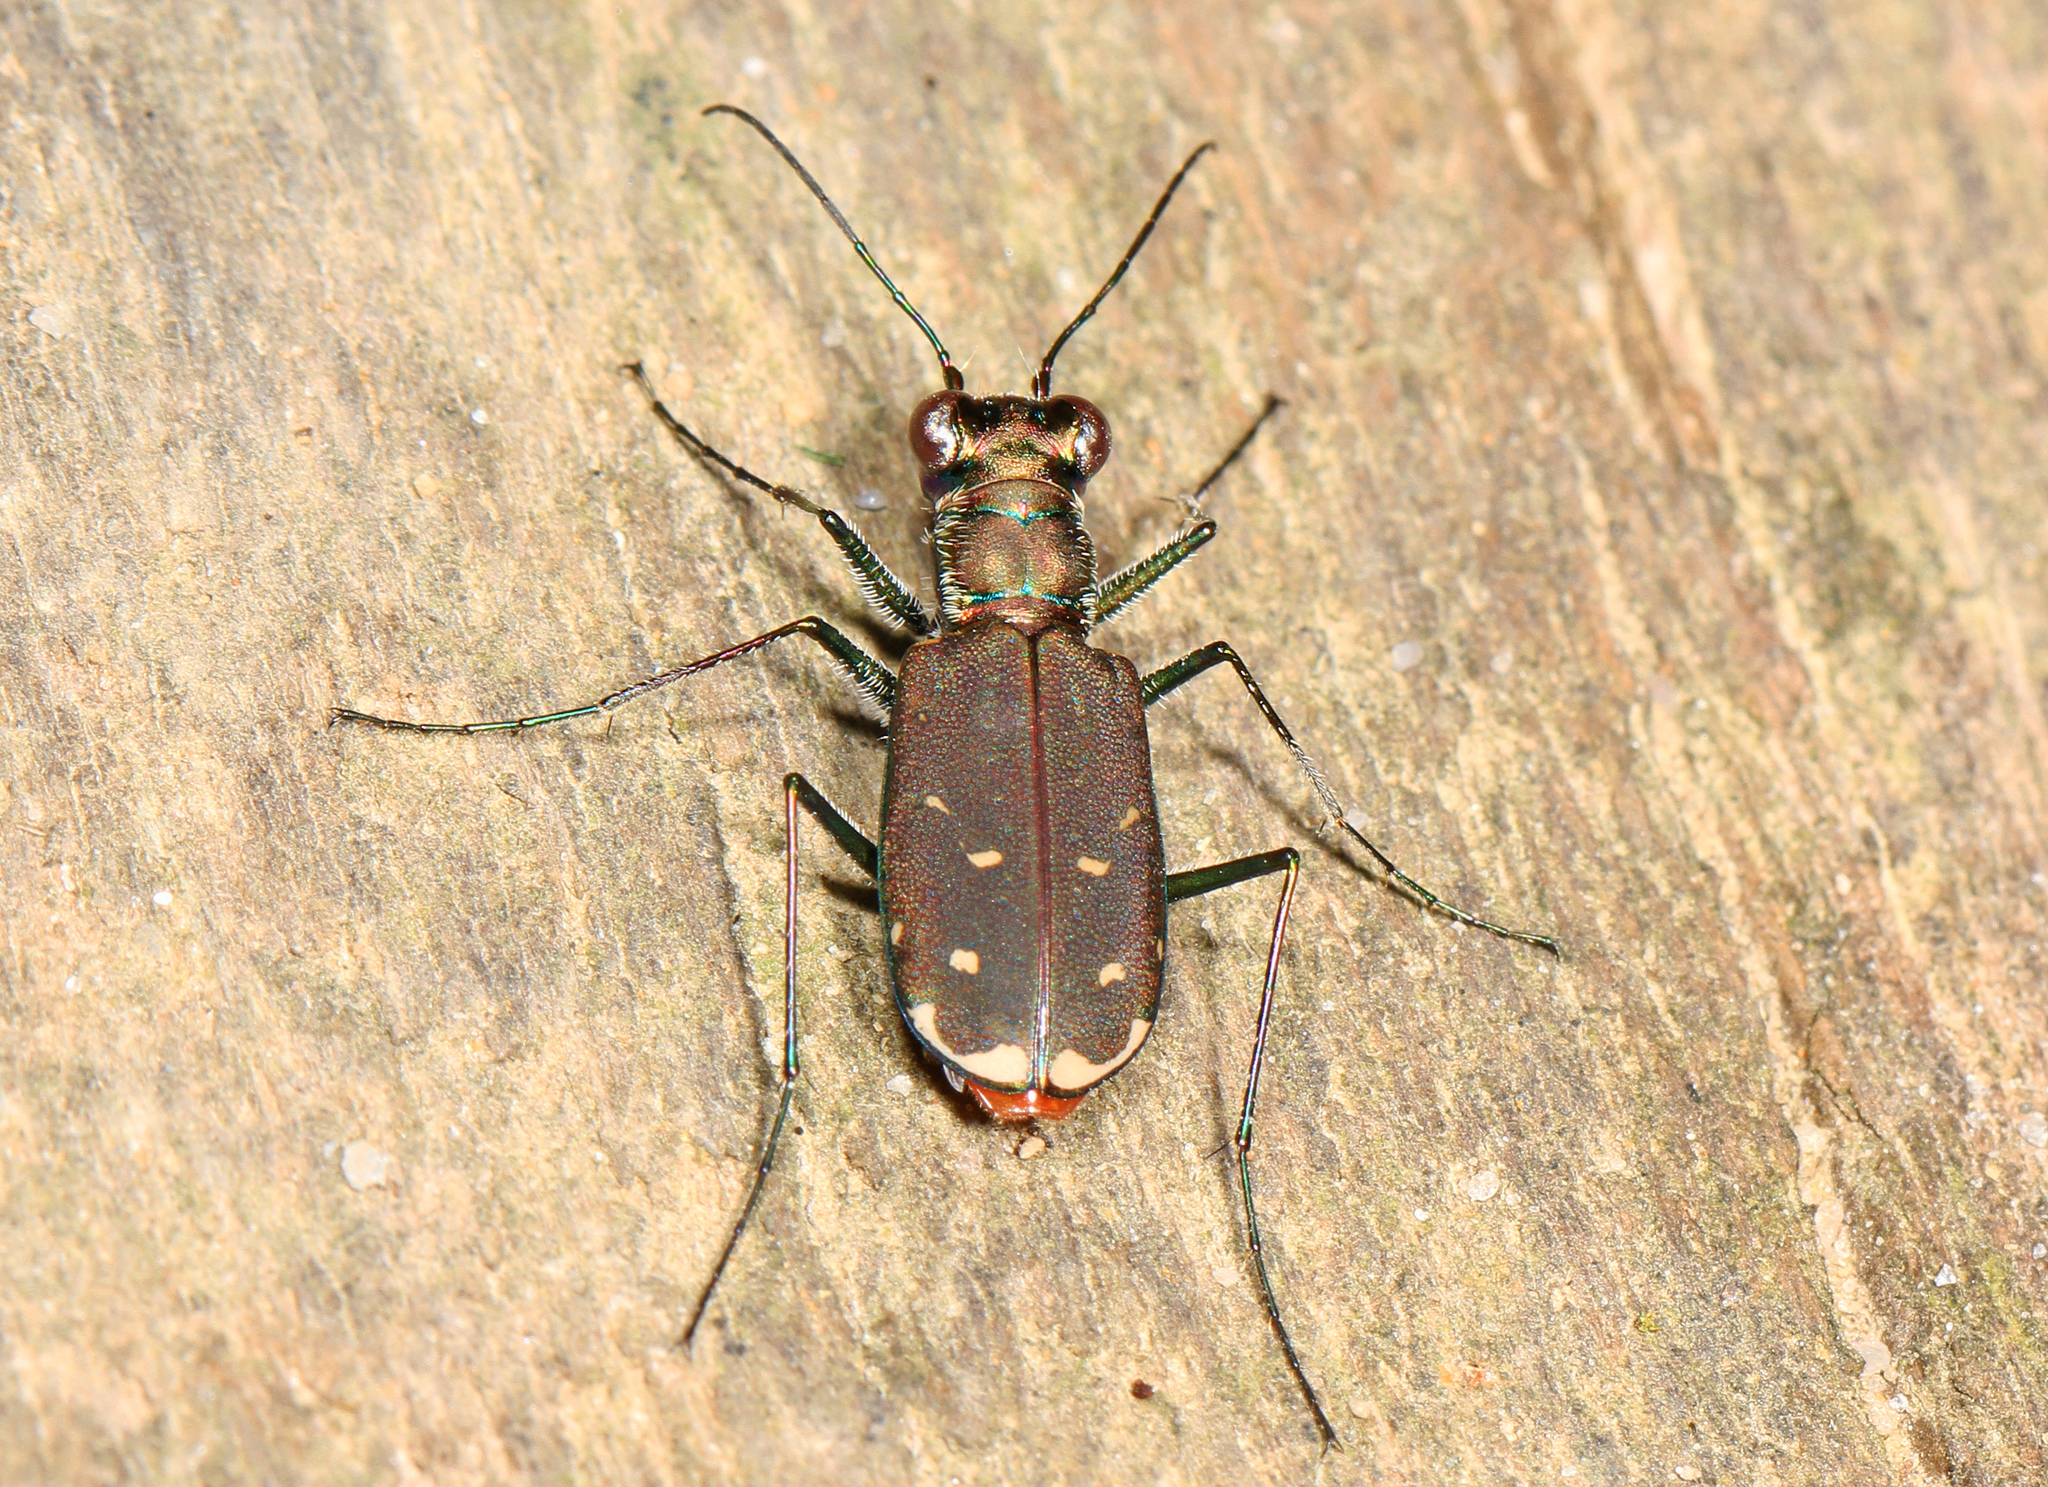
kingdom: Animalia
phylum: Arthropoda
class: Insecta
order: Coleoptera
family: Carabidae
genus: Cicindela
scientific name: Cicindela rufiventris
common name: Eastern red-bellied tiger beetle
